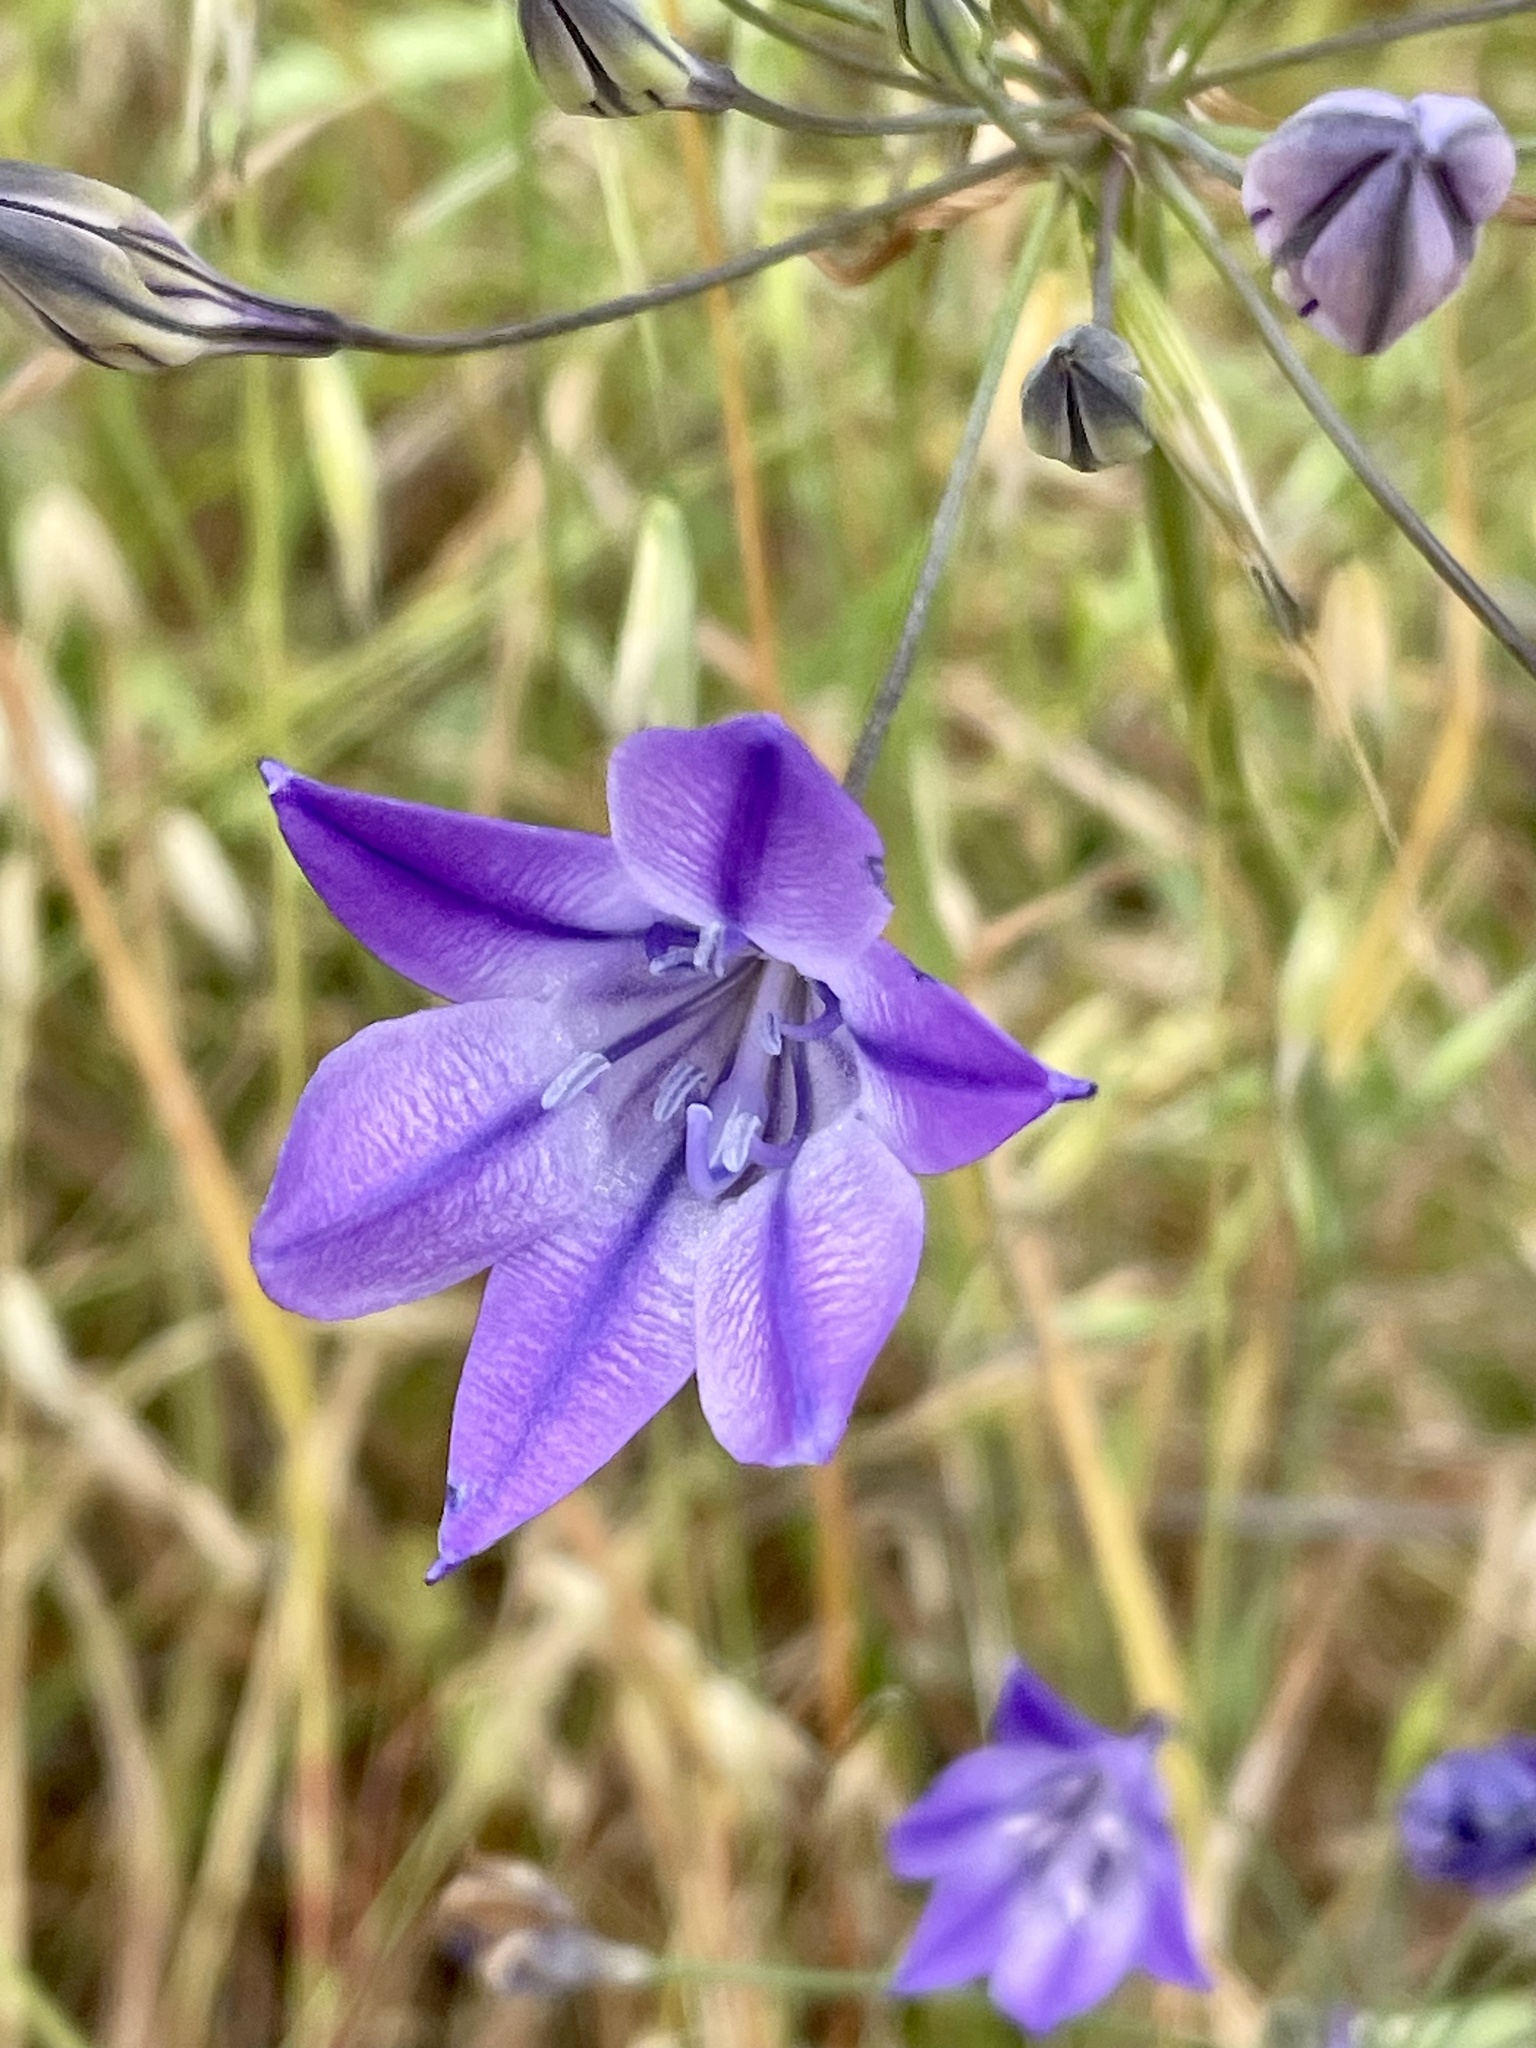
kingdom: Plantae
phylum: Tracheophyta
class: Liliopsida
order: Asparagales
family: Asparagaceae
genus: Triteleia
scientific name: Triteleia laxa
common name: Triplet-lily
